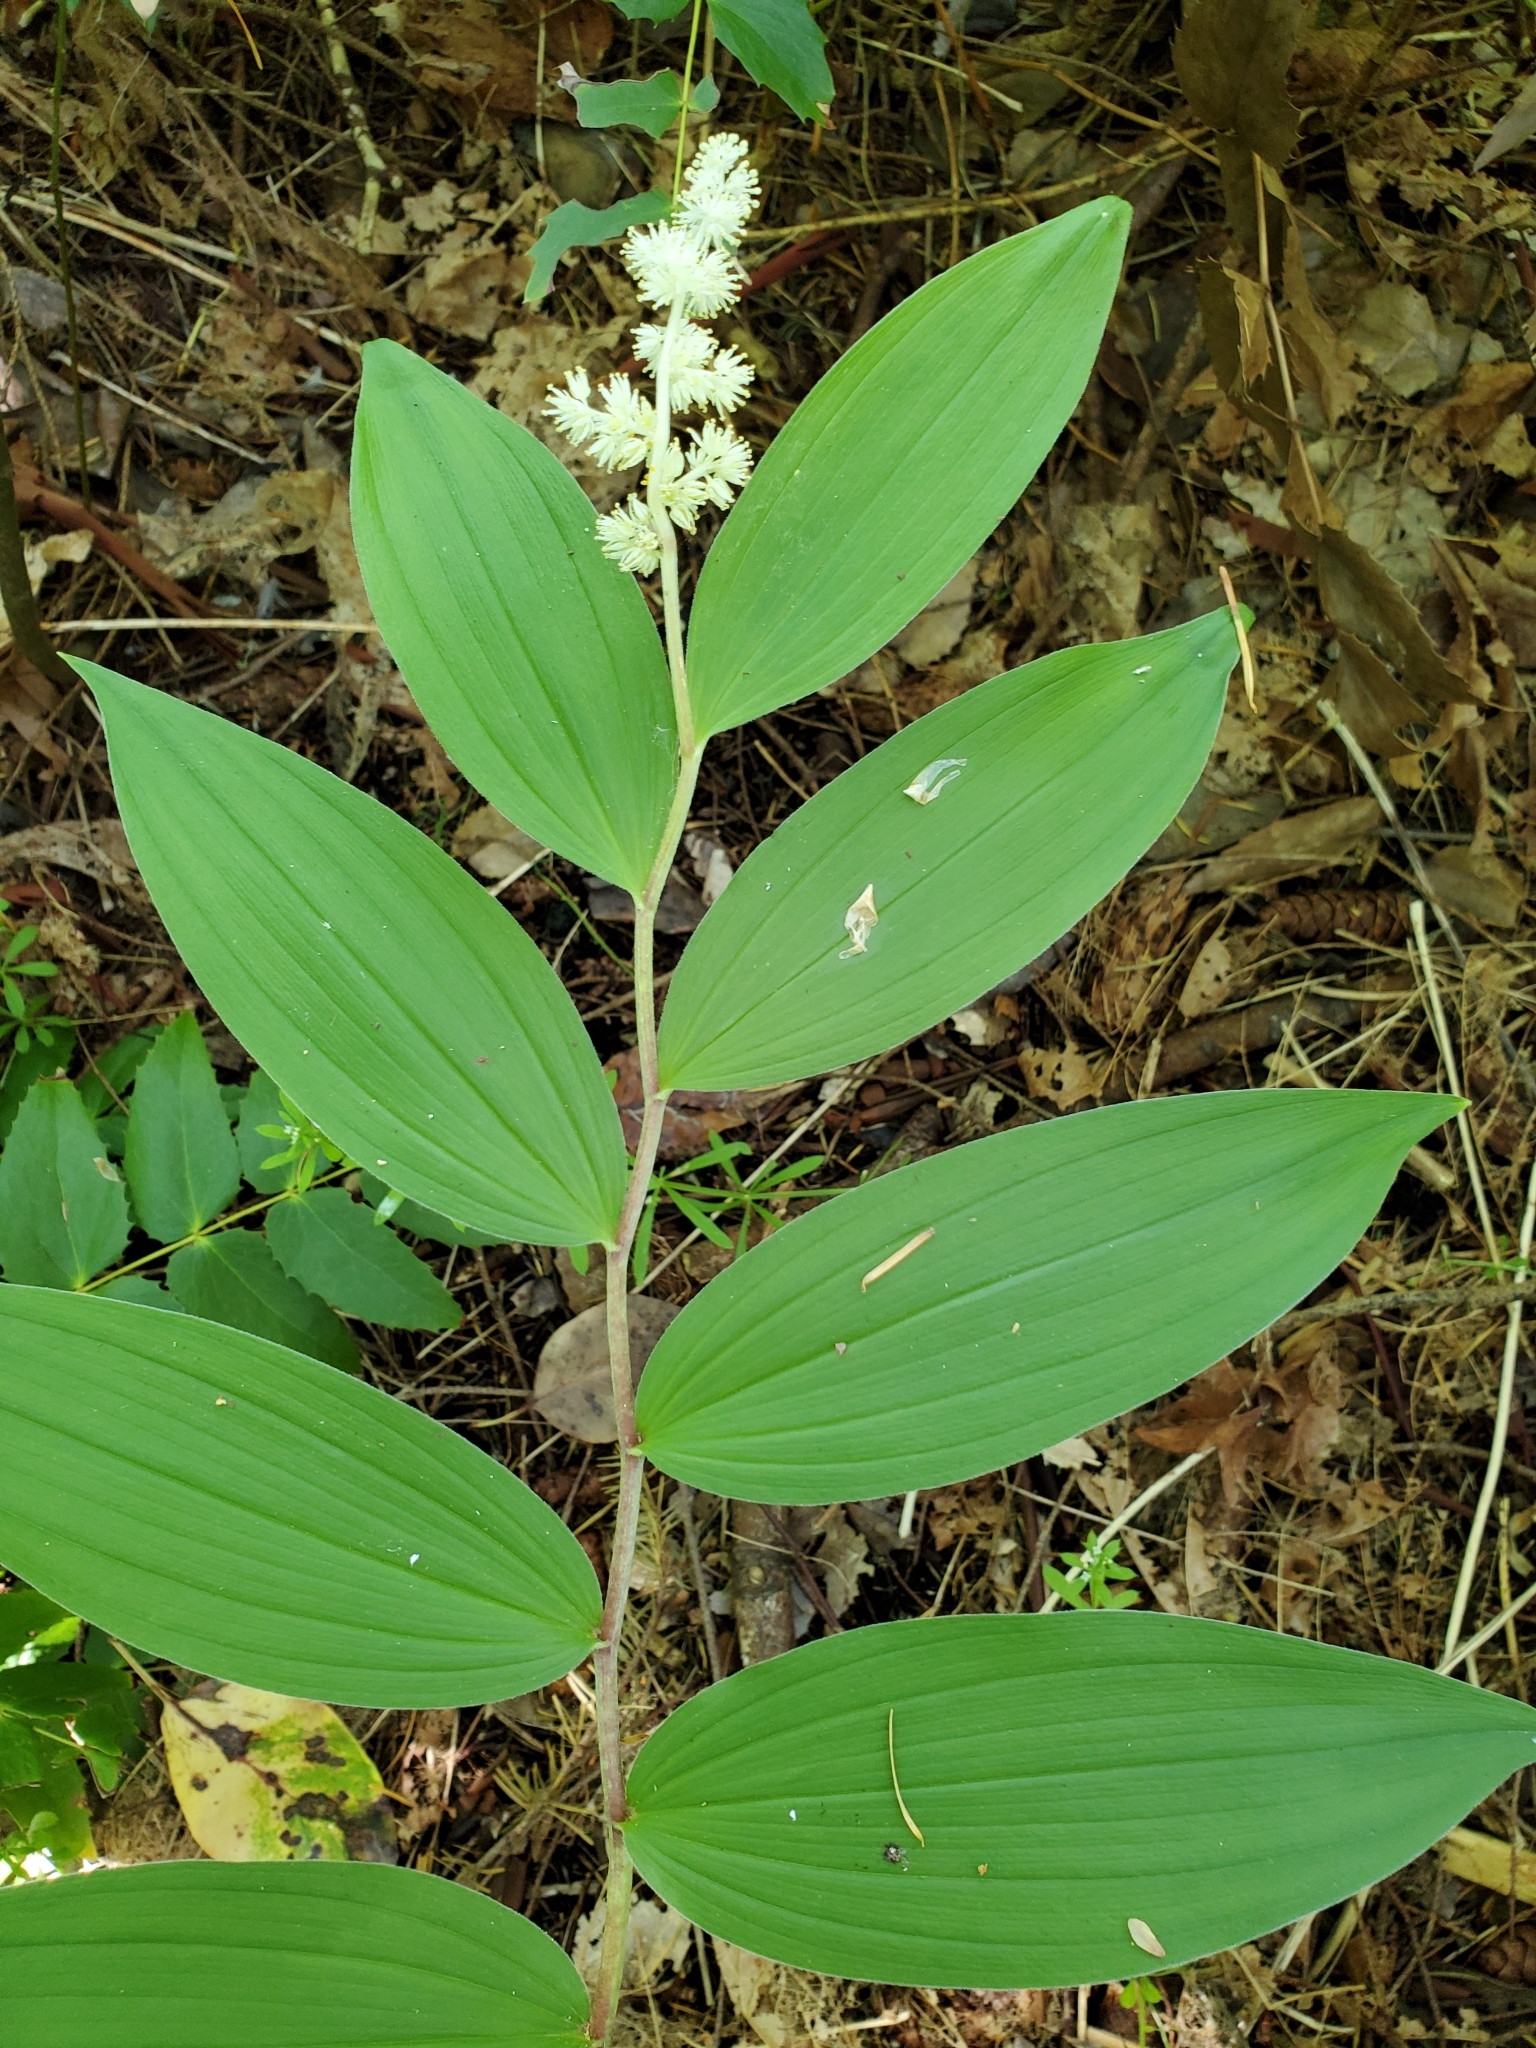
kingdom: Plantae
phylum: Tracheophyta
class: Liliopsida
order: Asparagales
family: Asparagaceae
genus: Maianthemum
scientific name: Maianthemum racemosum
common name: False spikenard
